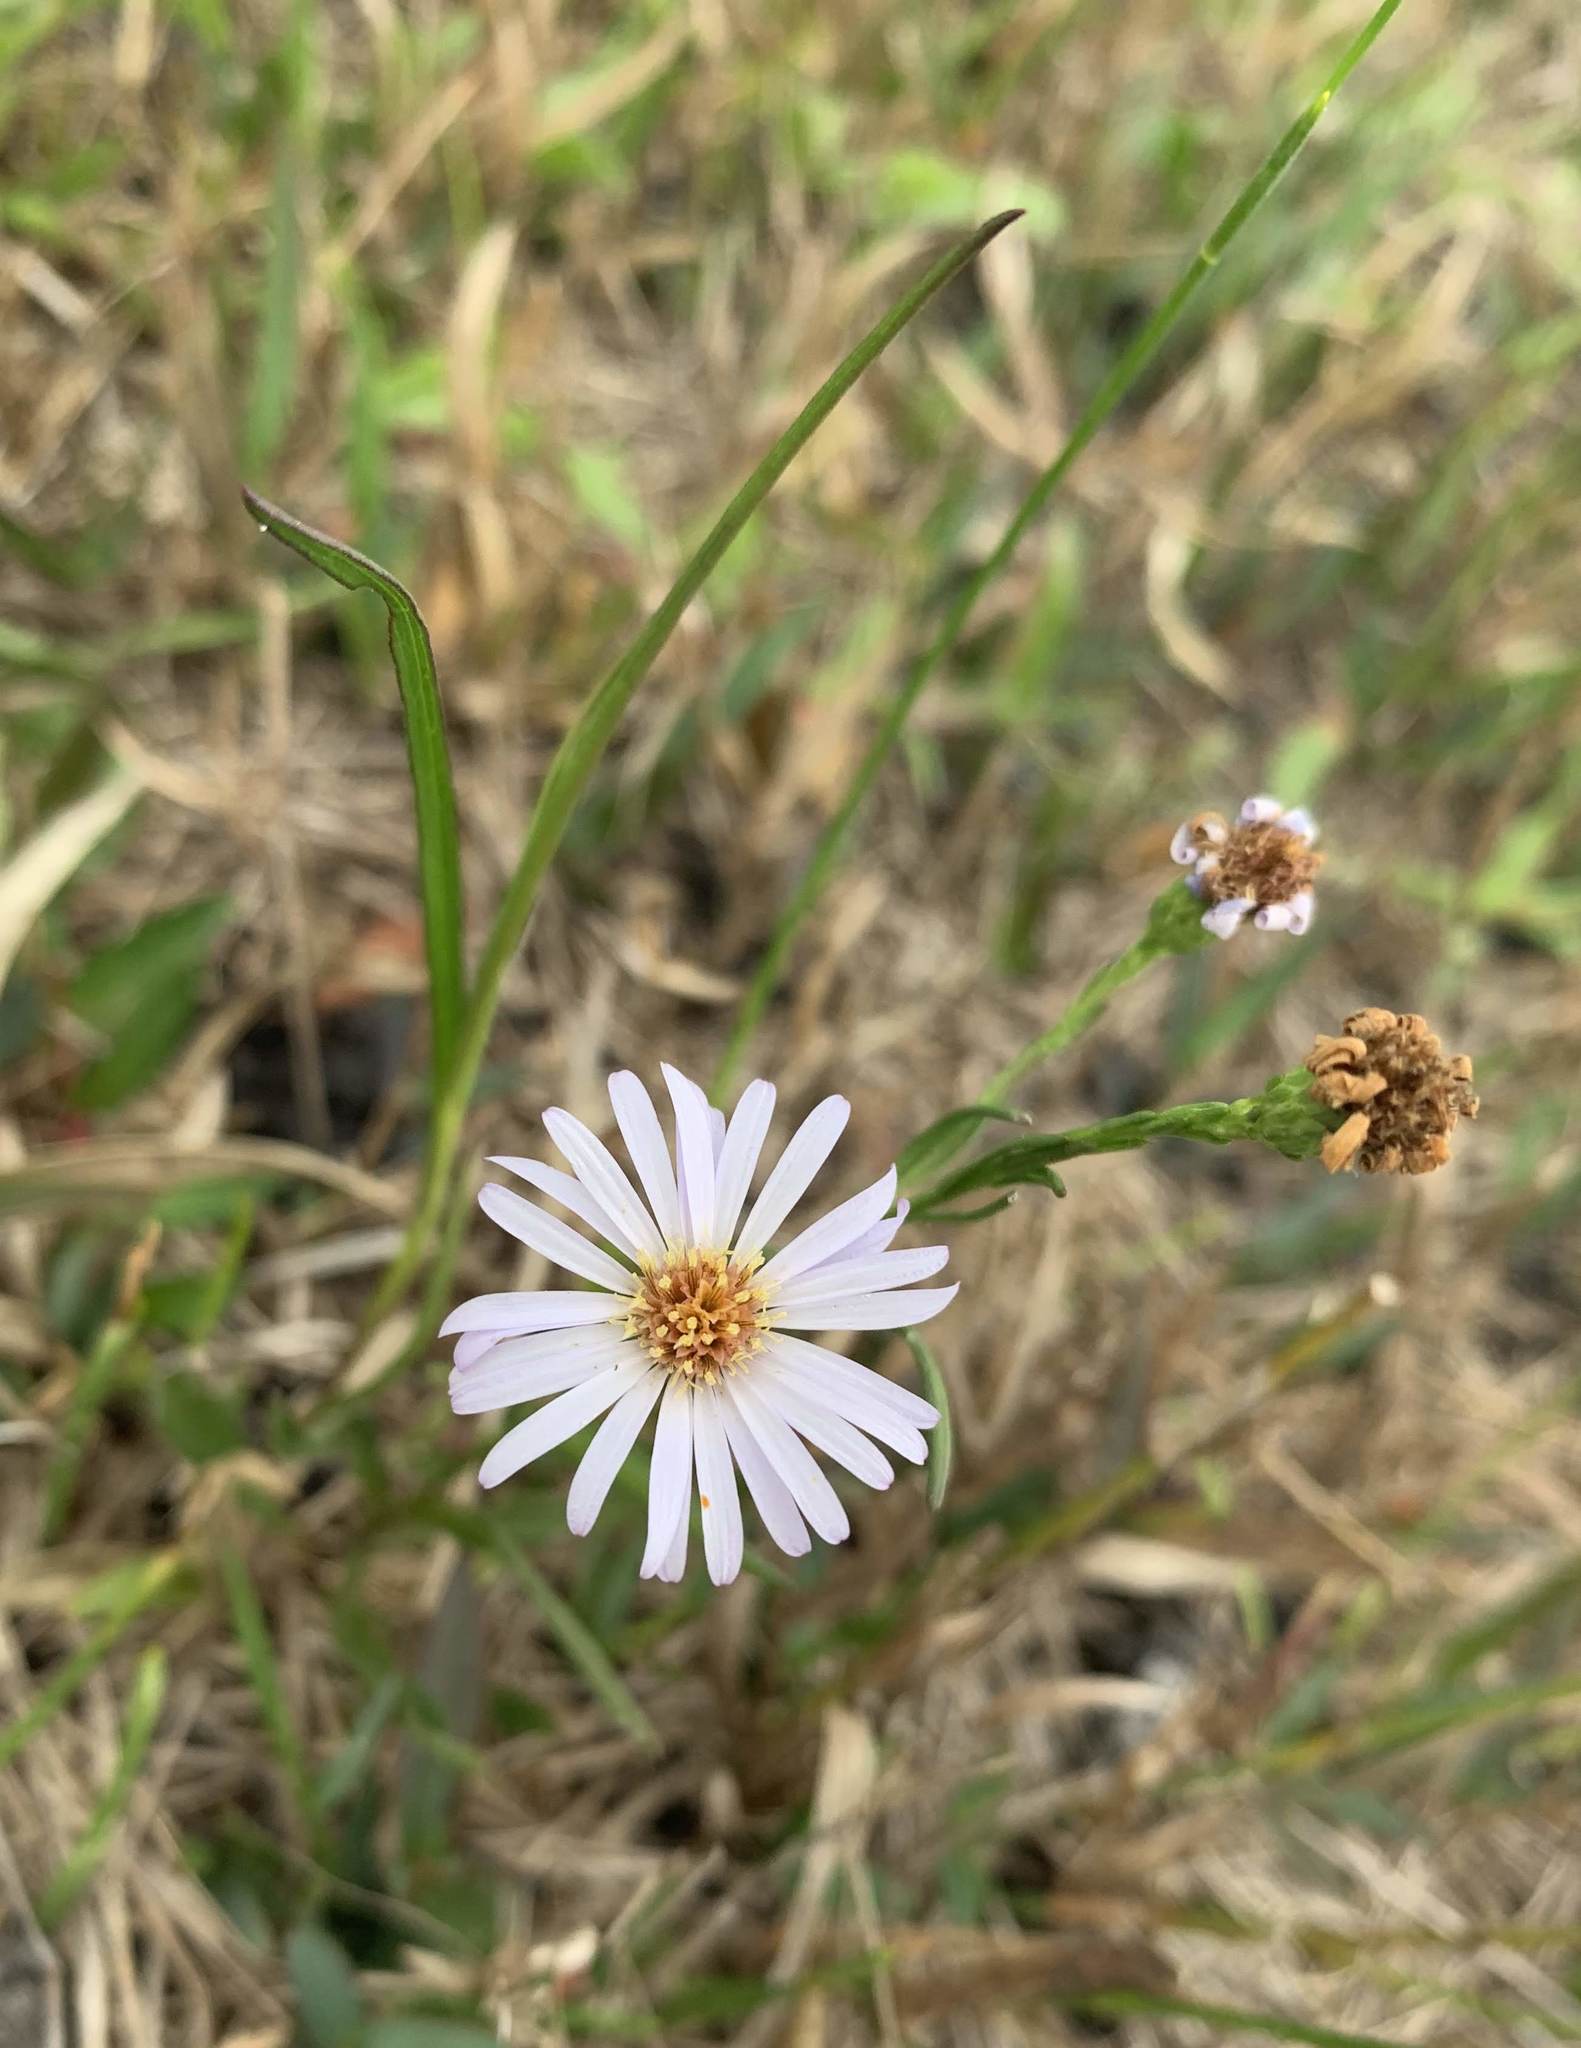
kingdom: Plantae
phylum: Tracheophyta
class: Magnoliopsida
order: Asterales
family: Asteraceae
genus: Symphyotrichum
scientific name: Symphyotrichum dumosum
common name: Bushy aster
